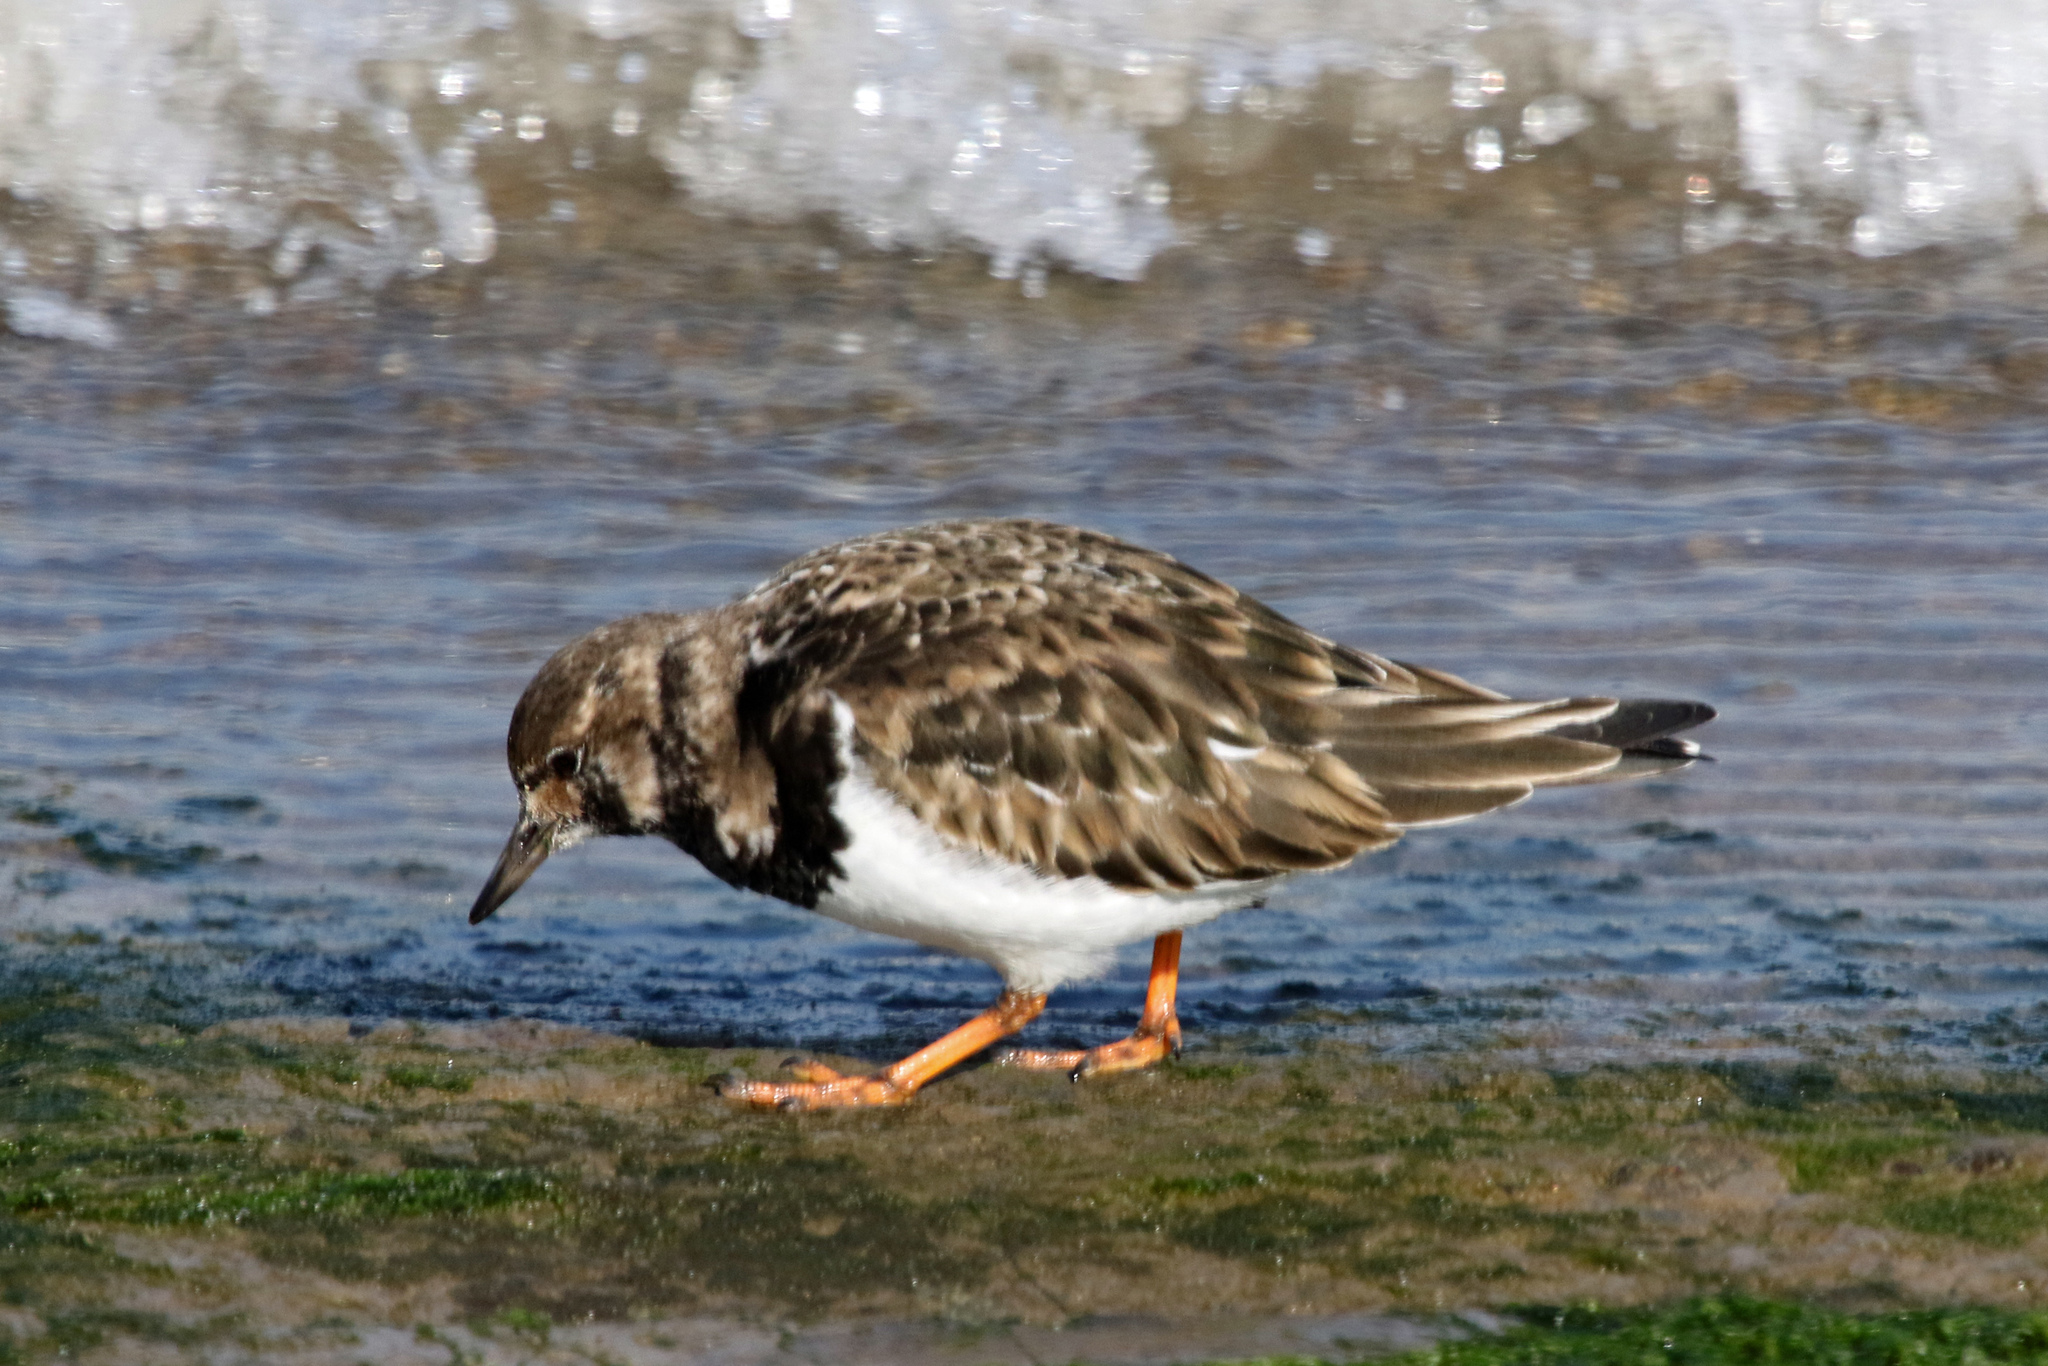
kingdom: Animalia
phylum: Chordata
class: Aves
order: Charadriiformes
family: Scolopacidae
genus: Arenaria
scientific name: Arenaria interpres
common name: Ruddy turnstone
